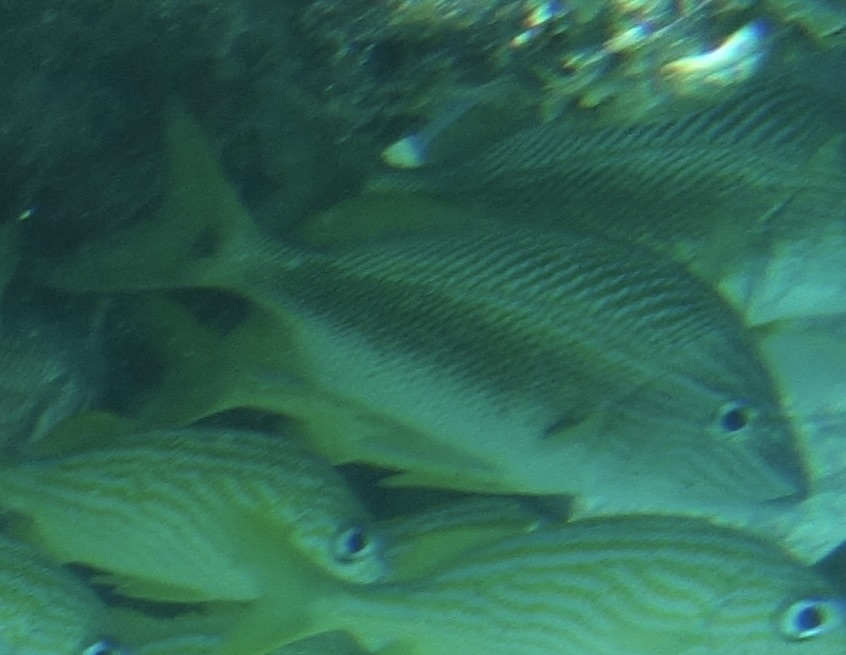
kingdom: Animalia
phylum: Chordata
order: Perciformes
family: Haemulidae
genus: Haemulon
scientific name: Haemulon plumierii
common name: White grunt
